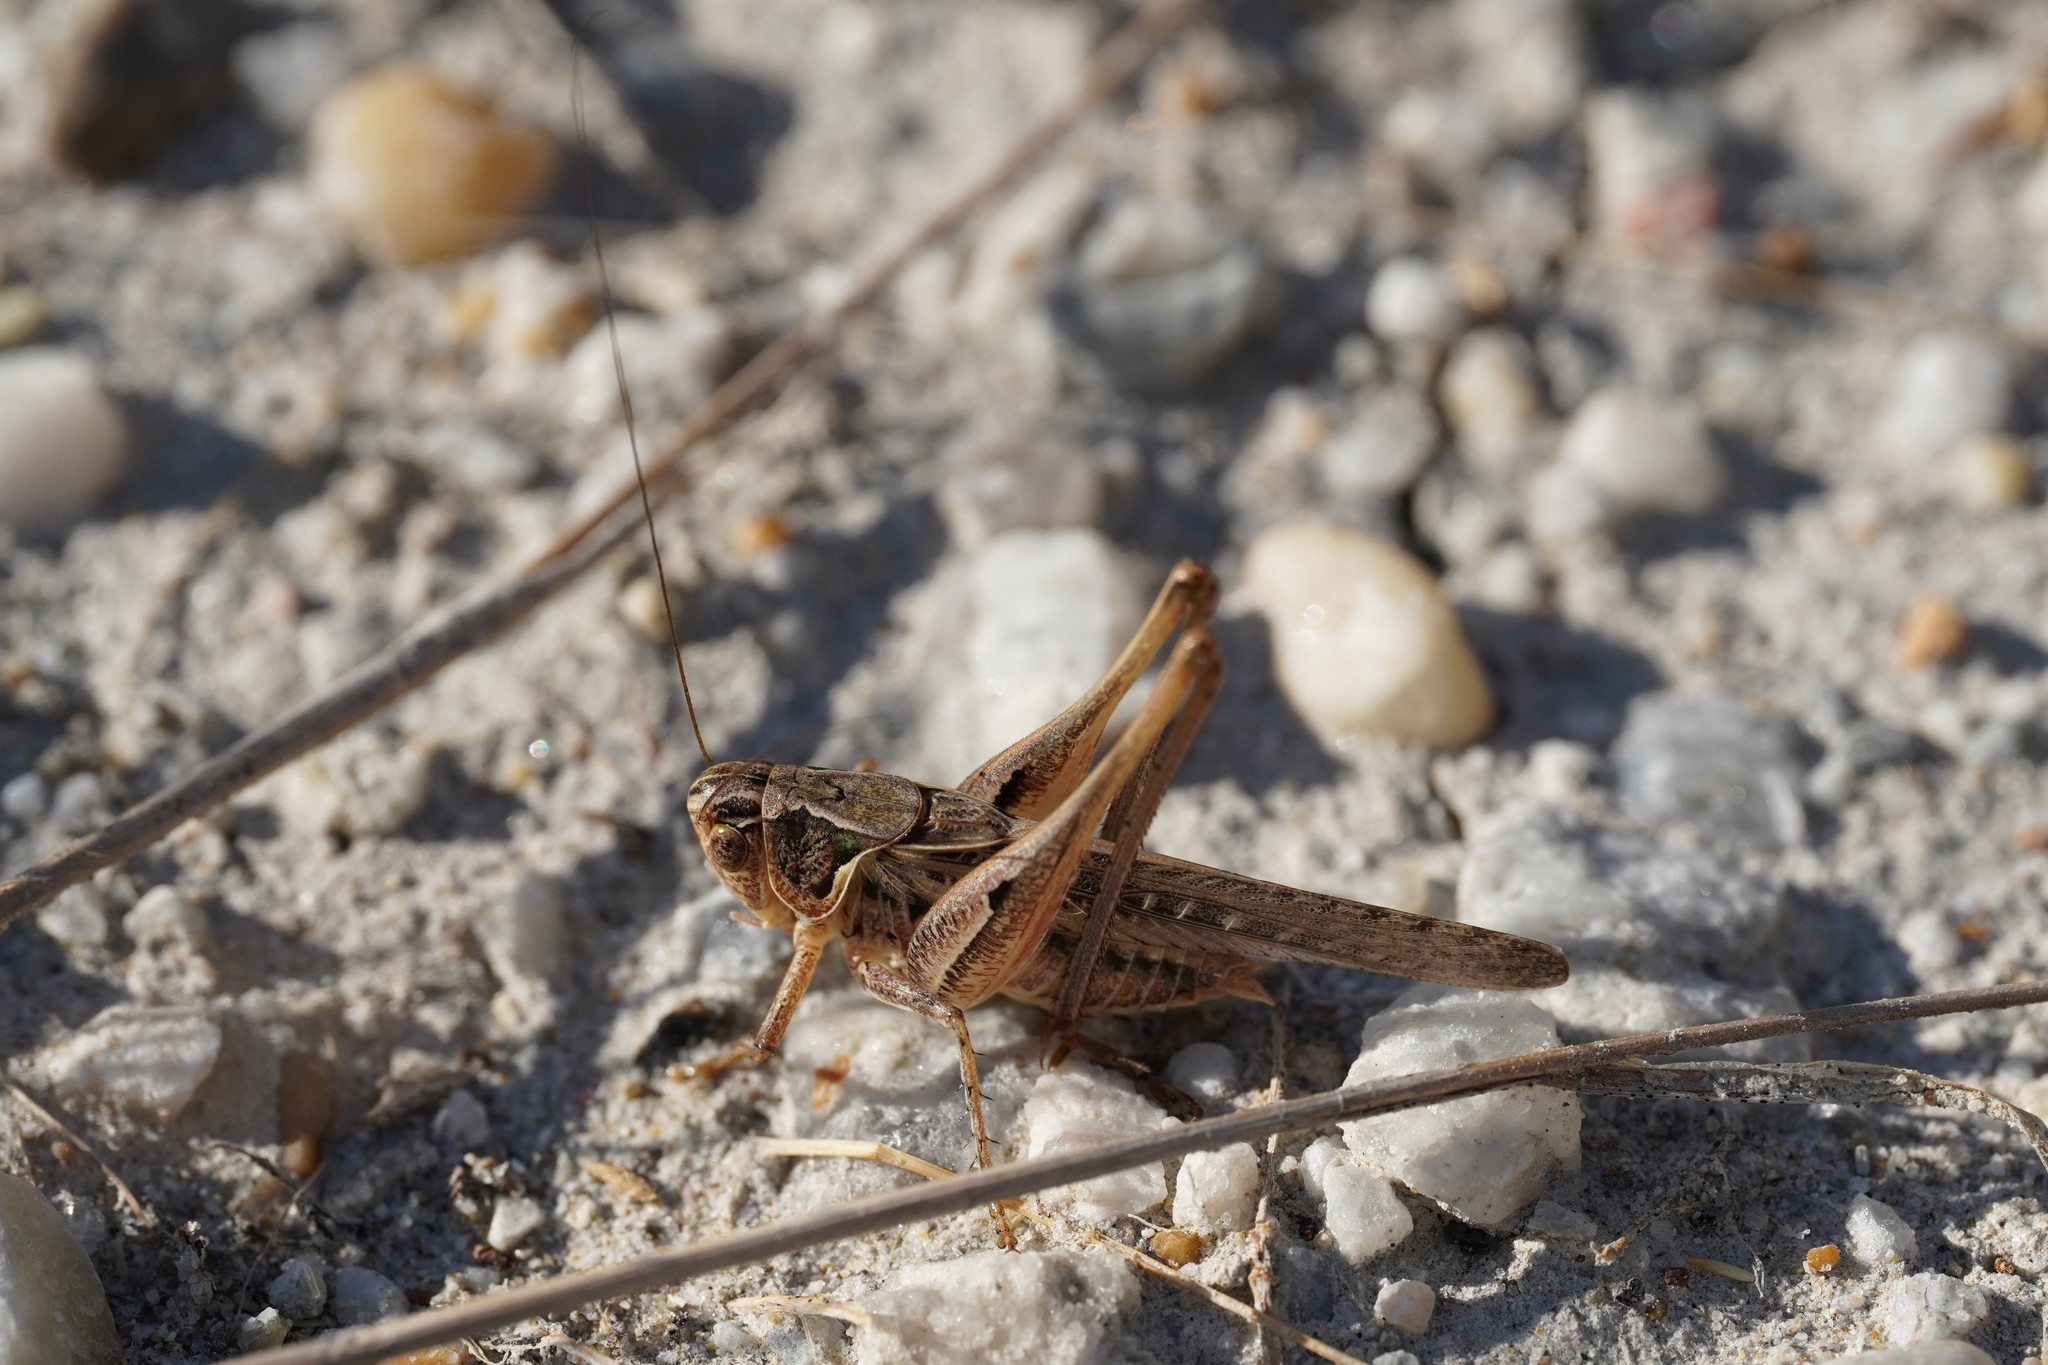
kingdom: Animalia
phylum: Arthropoda
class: Insecta
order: Orthoptera
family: Tettigoniidae
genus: Platycleis
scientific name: Platycleis affinis
